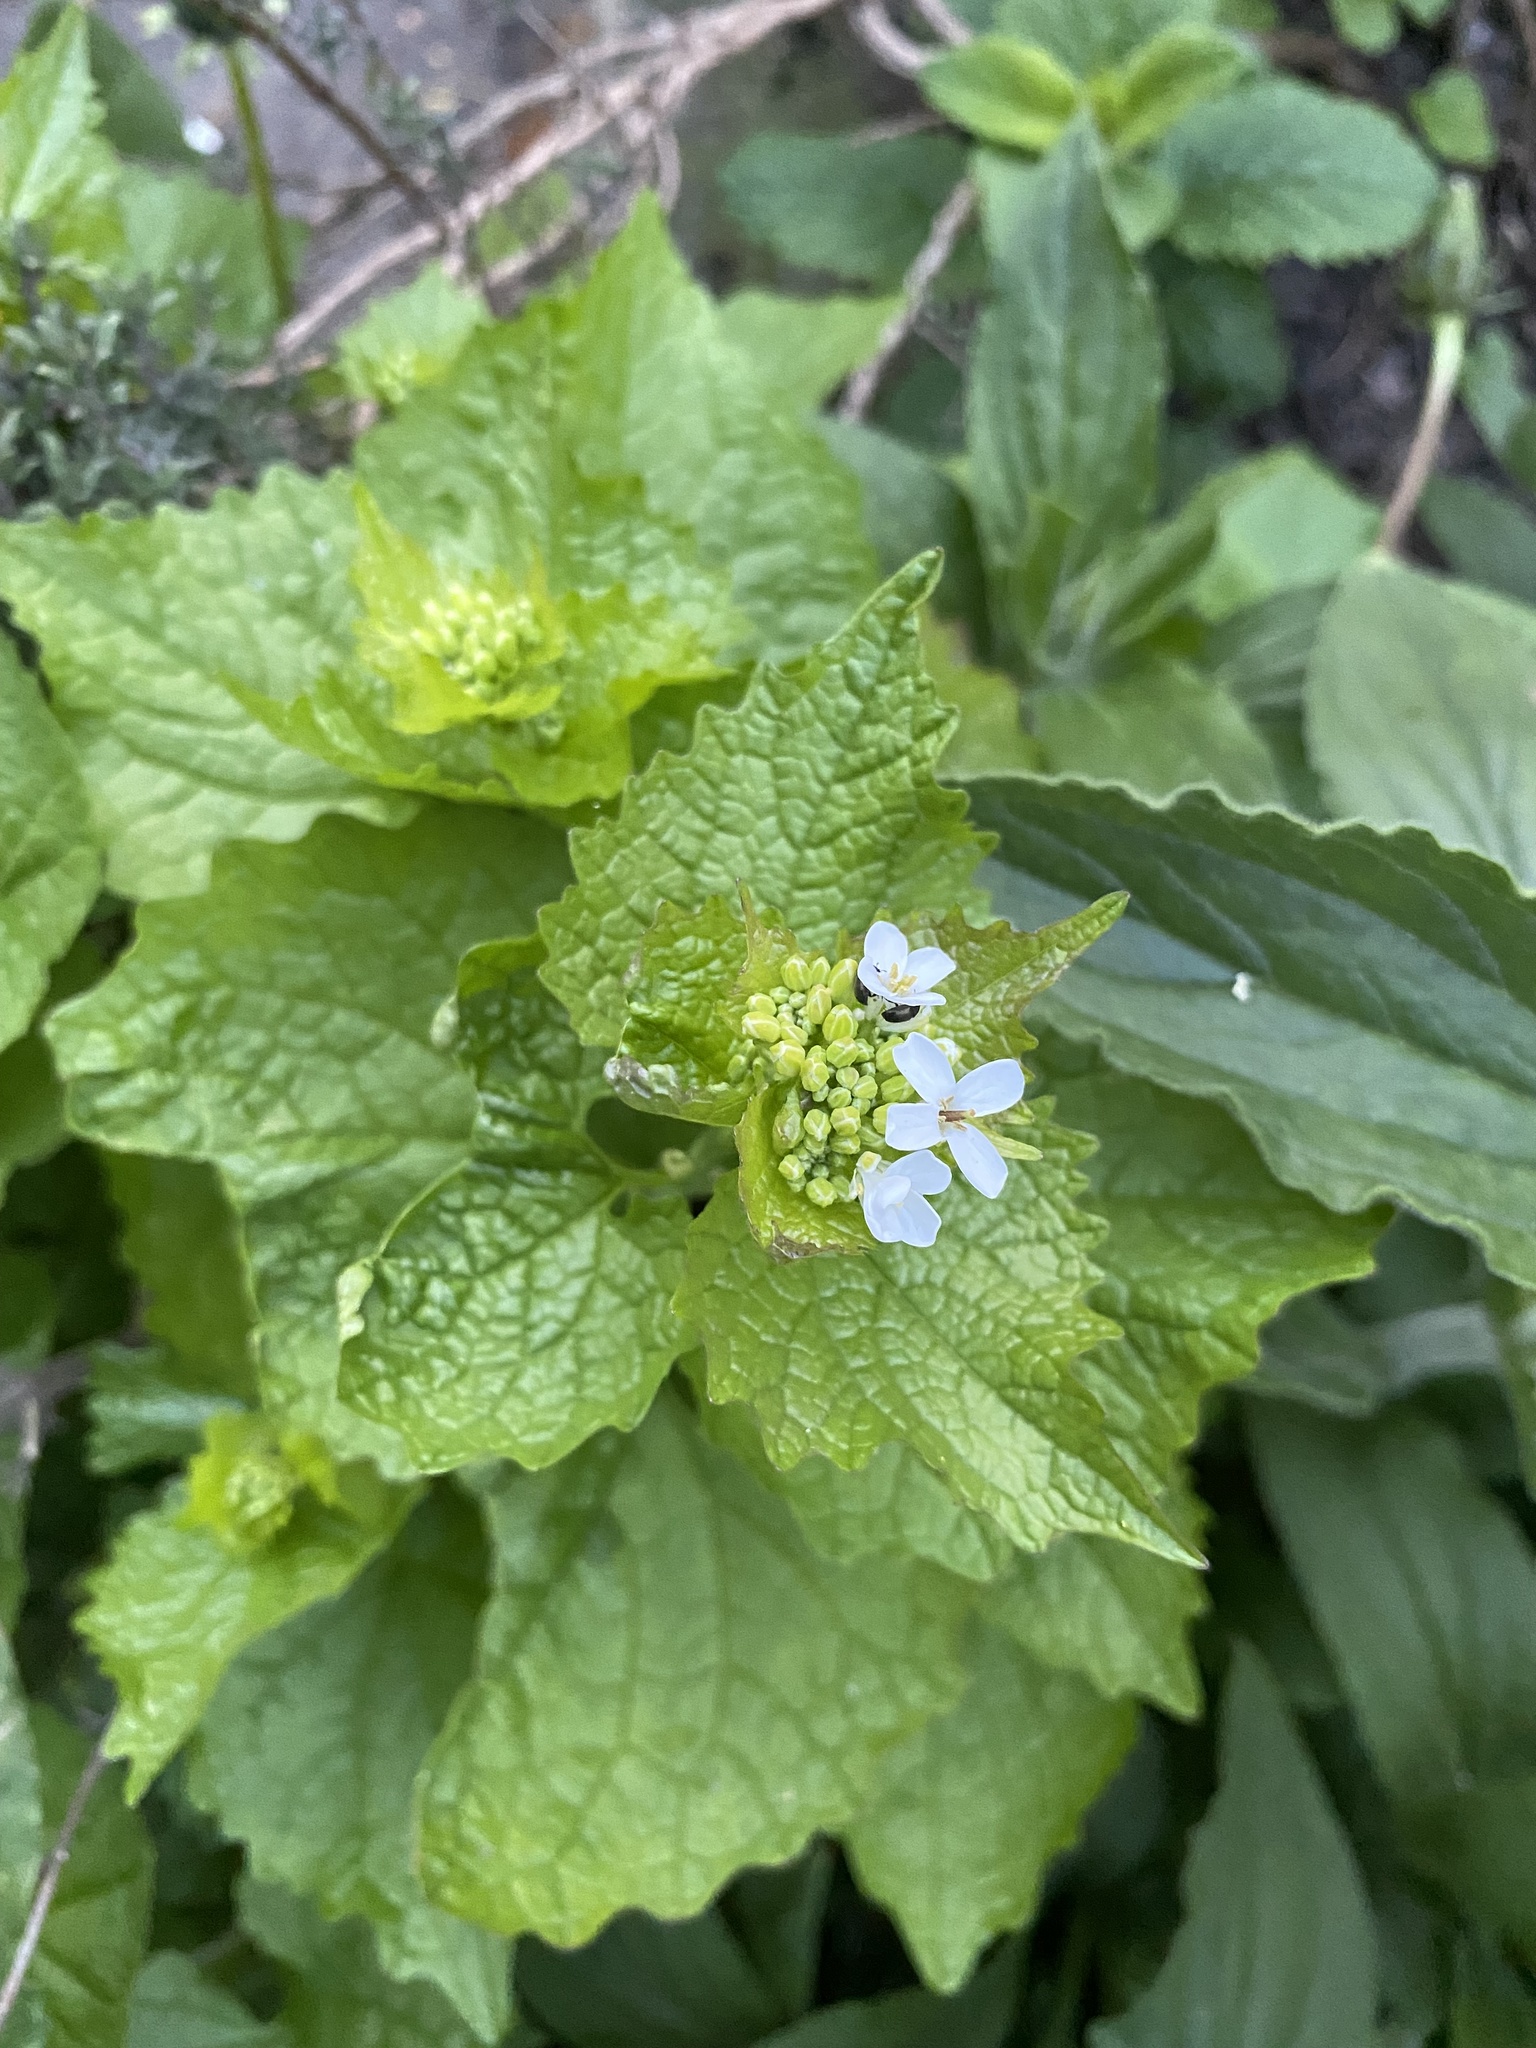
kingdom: Plantae
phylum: Tracheophyta
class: Magnoliopsida
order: Brassicales
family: Brassicaceae
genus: Alliaria
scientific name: Alliaria petiolata
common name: Garlic mustard
